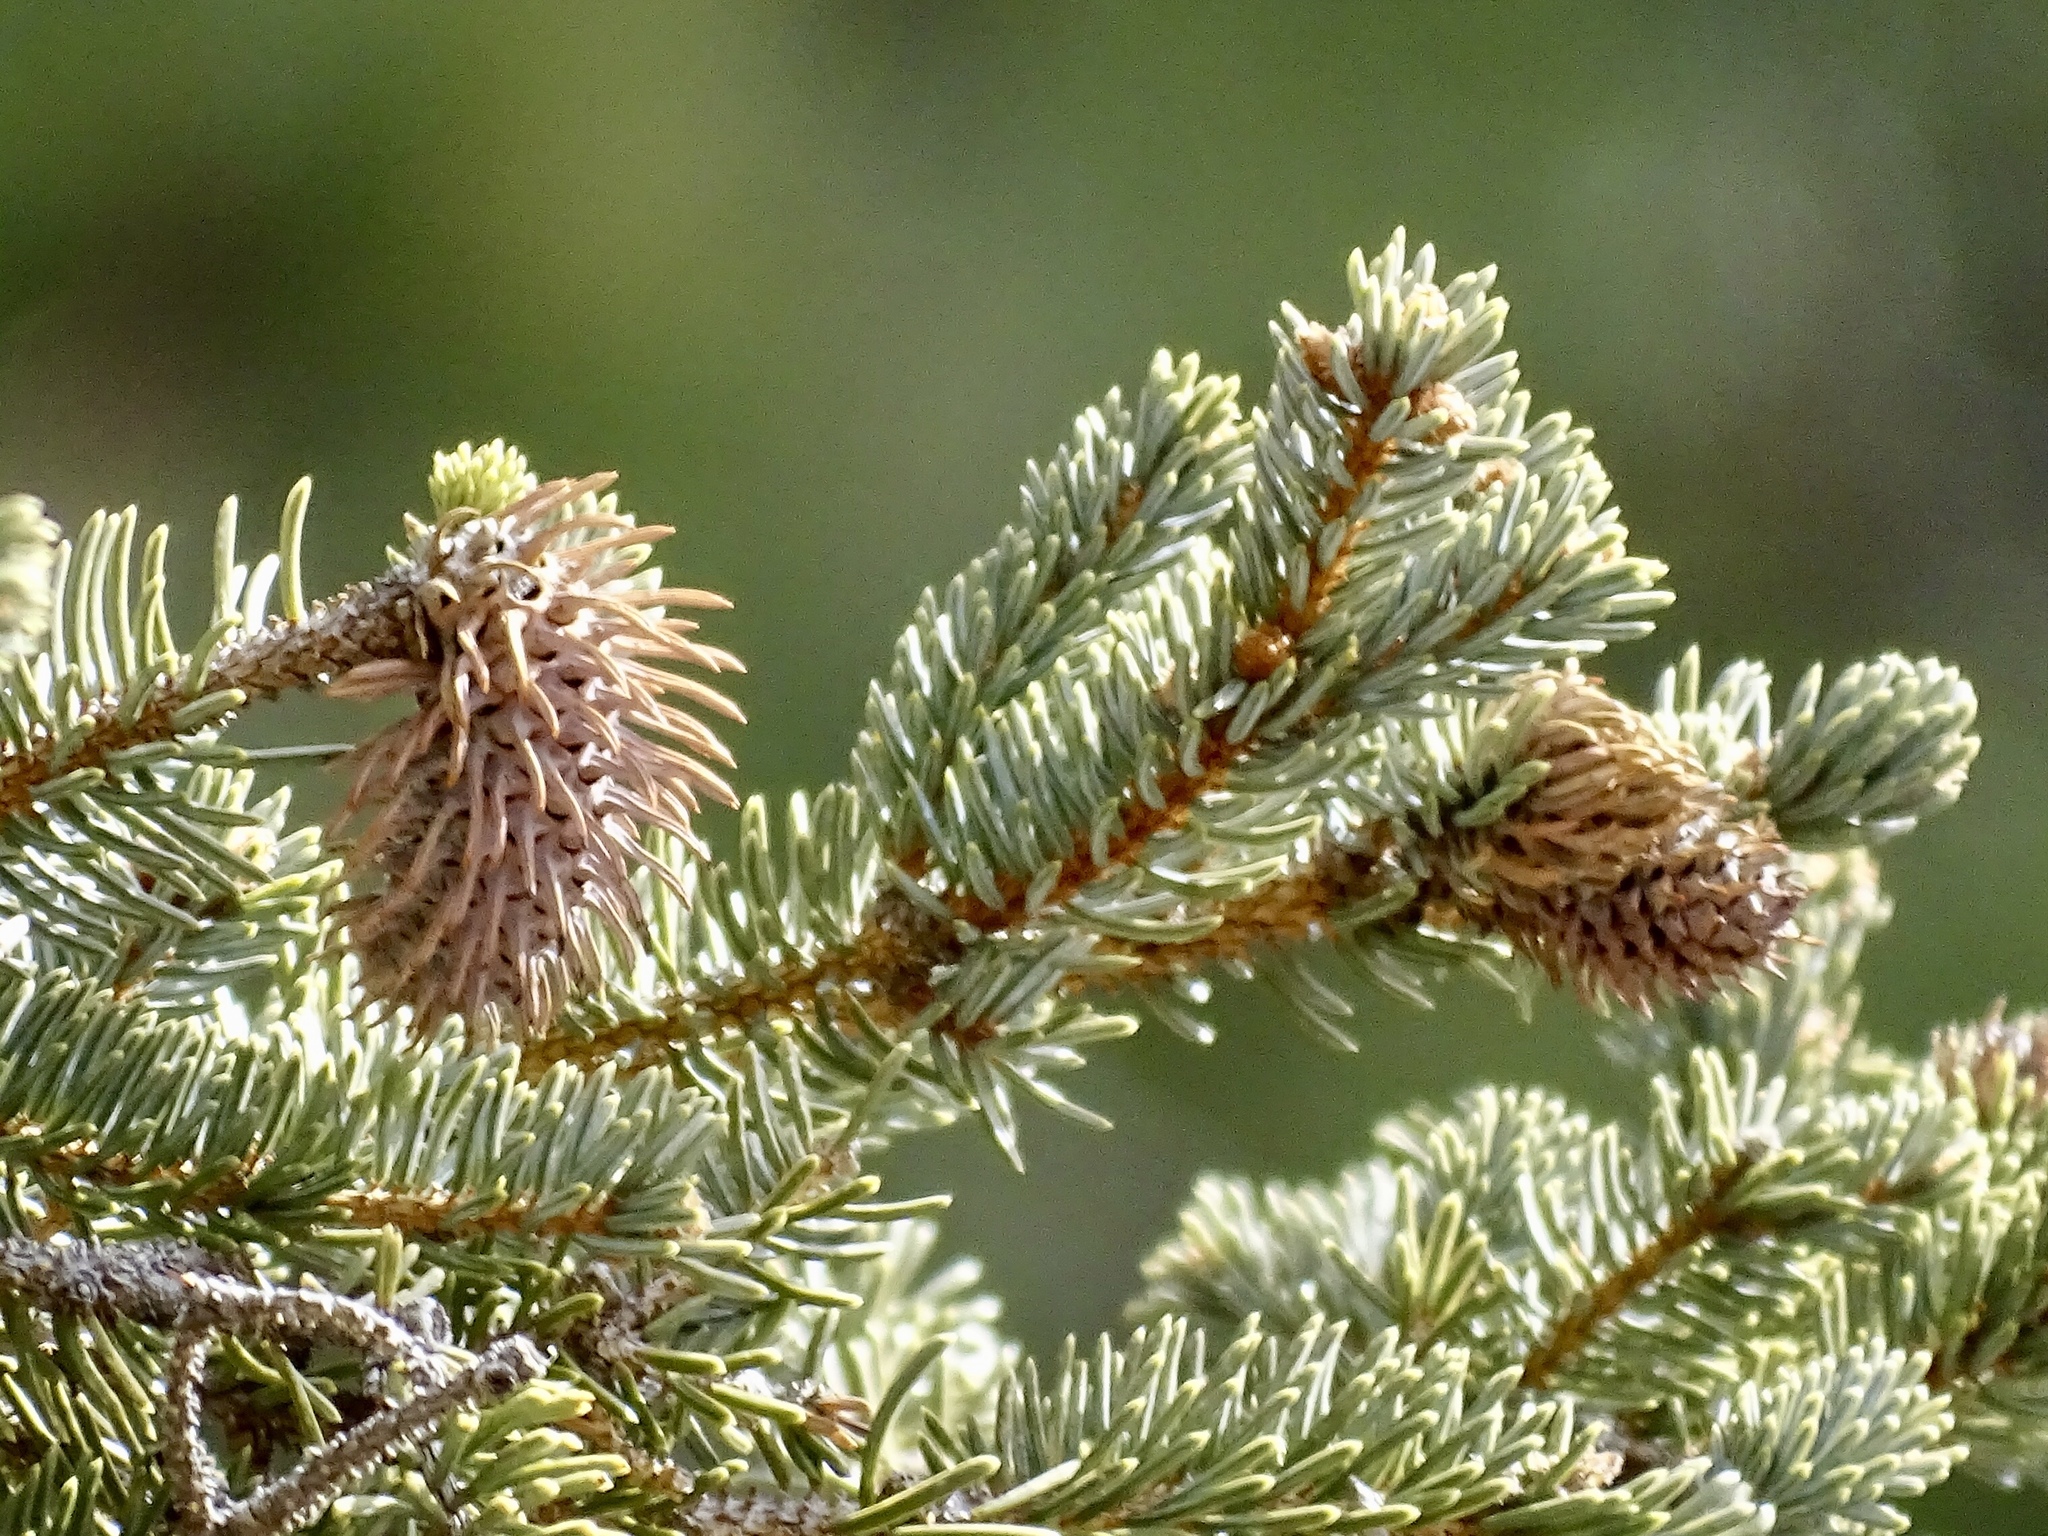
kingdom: Animalia
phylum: Arthropoda
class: Insecta
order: Hemiptera
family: Adelgidae
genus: Adelges
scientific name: Adelges cooleyi
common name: Cooley spruce gall adelgid
